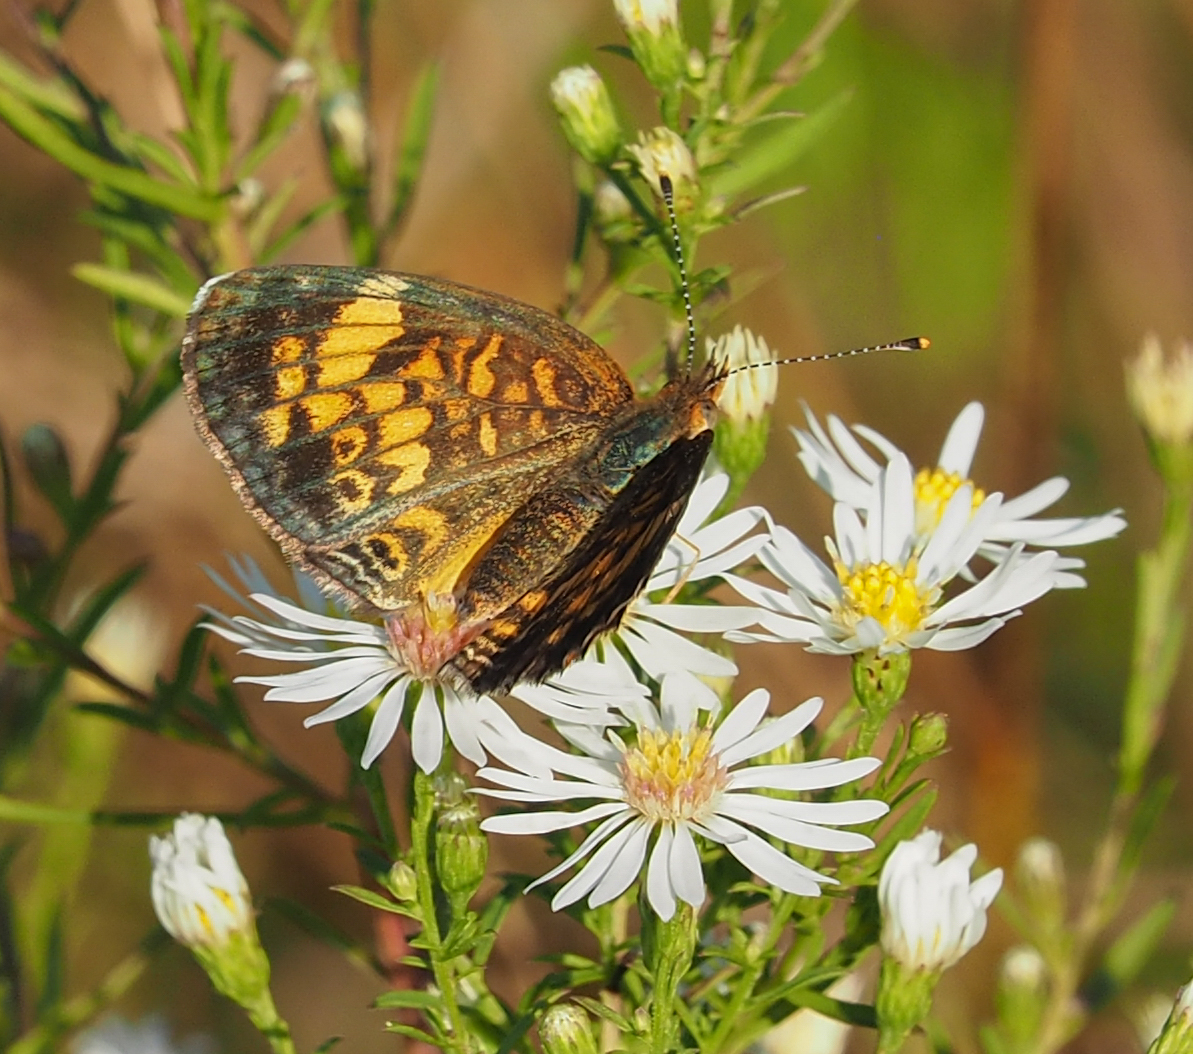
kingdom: Animalia
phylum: Arthropoda
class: Insecta
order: Lepidoptera
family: Nymphalidae
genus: Phyciodes
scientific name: Phyciodes tharos
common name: Pearl crescent
